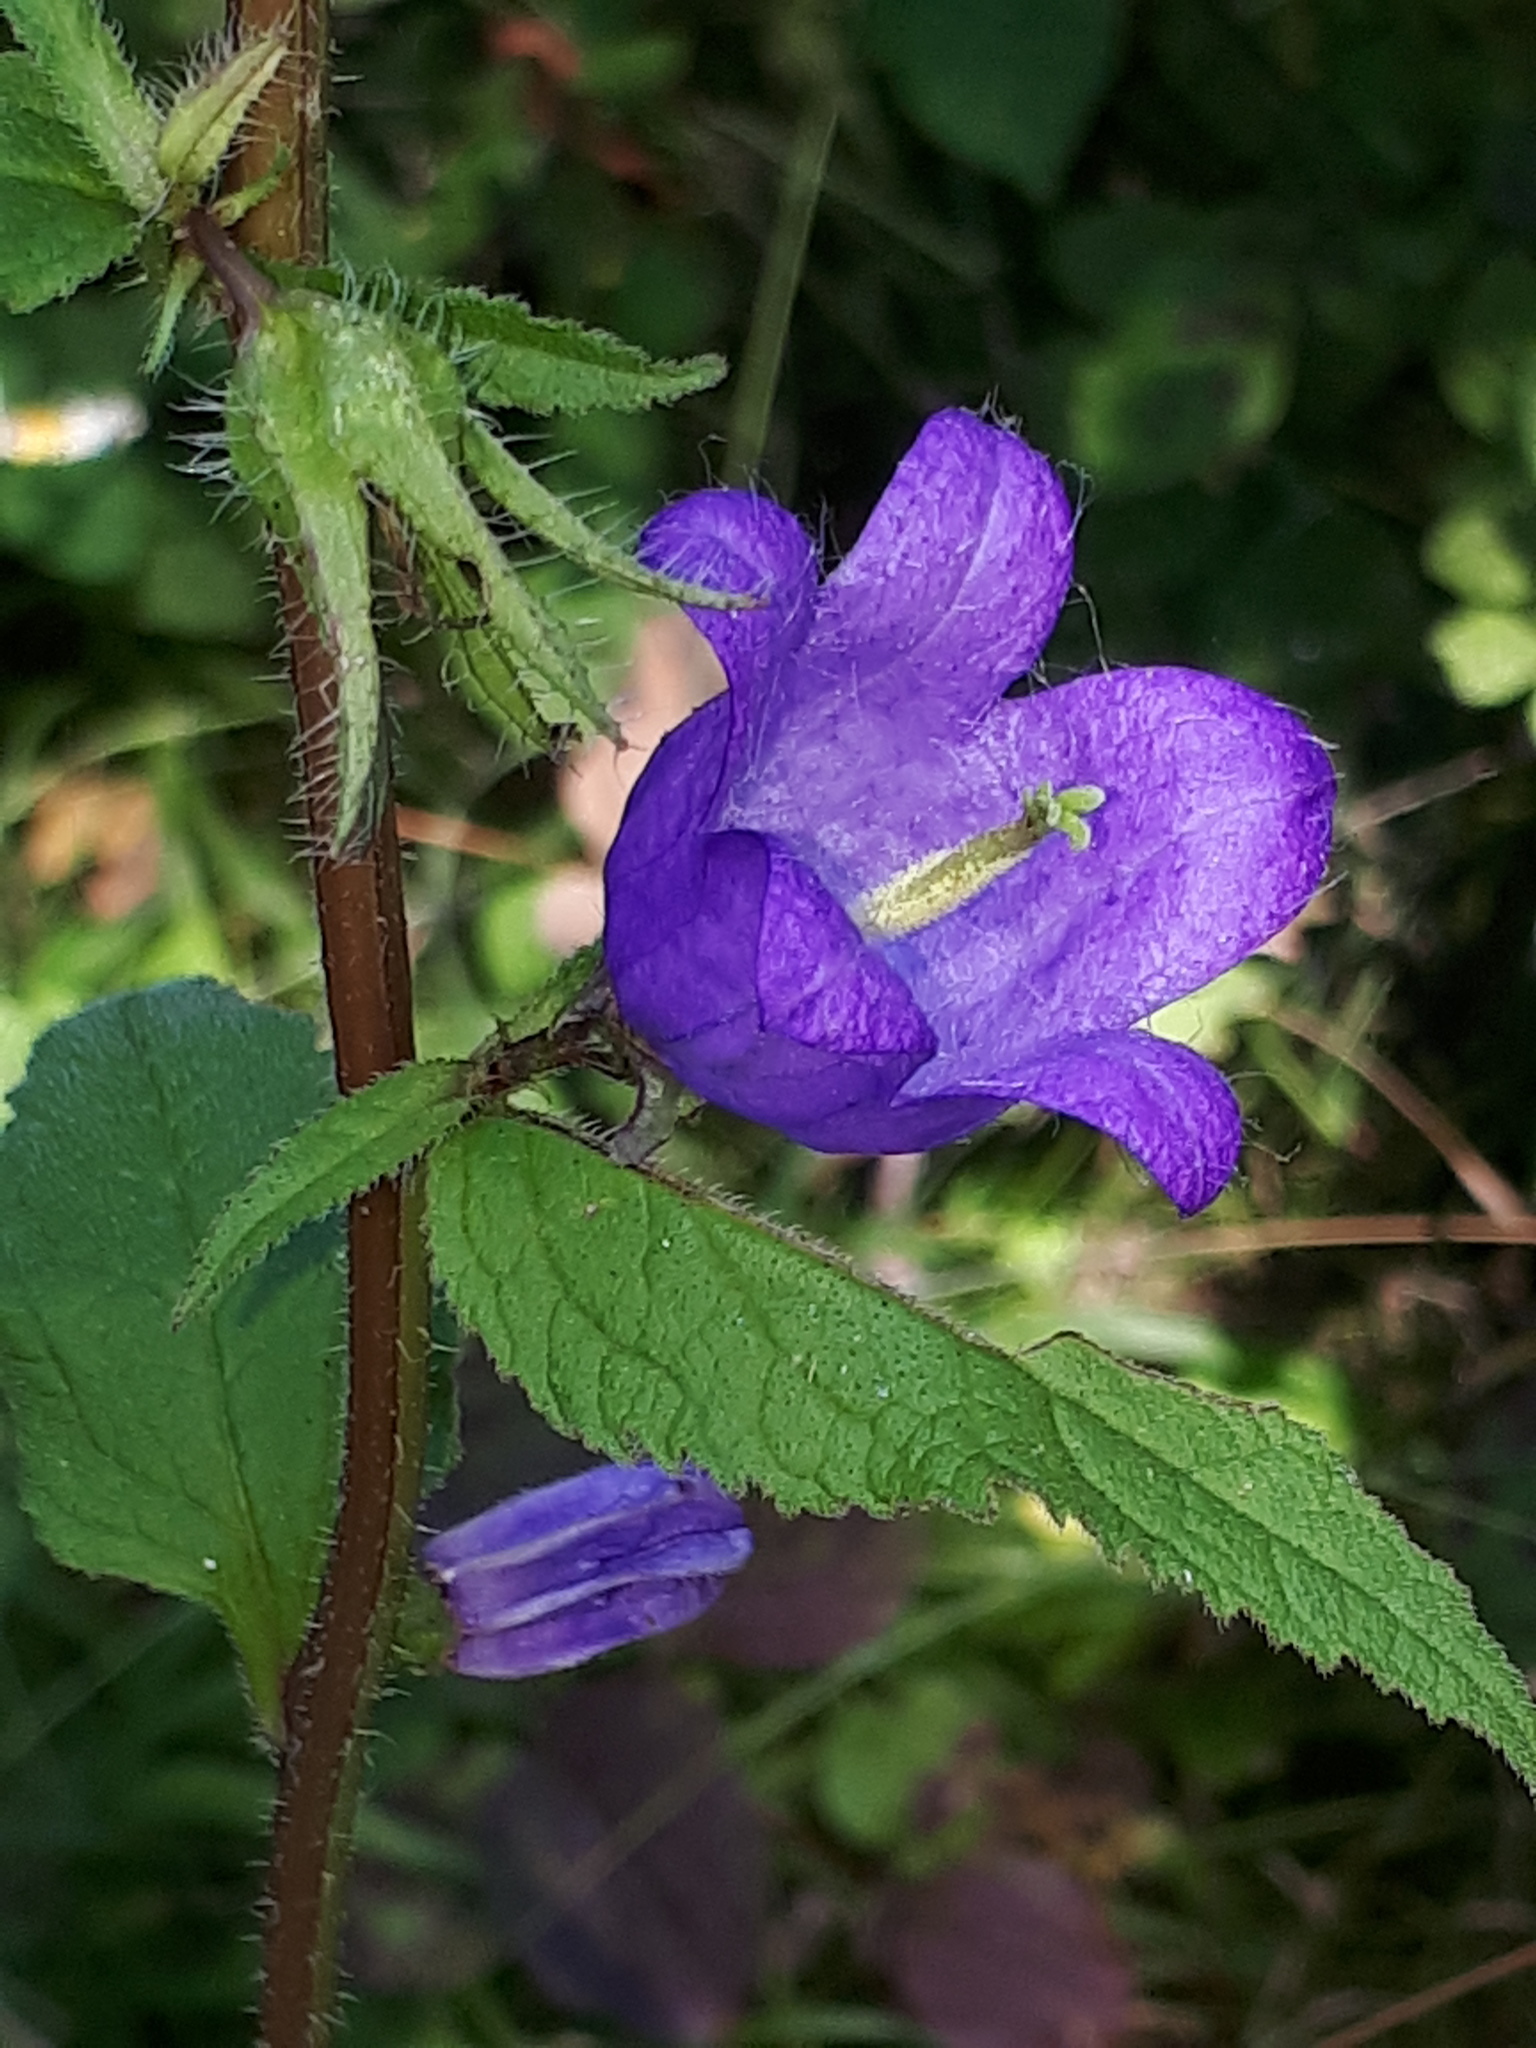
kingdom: Plantae
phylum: Tracheophyta
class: Magnoliopsida
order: Asterales
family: Campanulaceae
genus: Campanula
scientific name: Campanula trachelium
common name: Nettle-leaved bellflower
